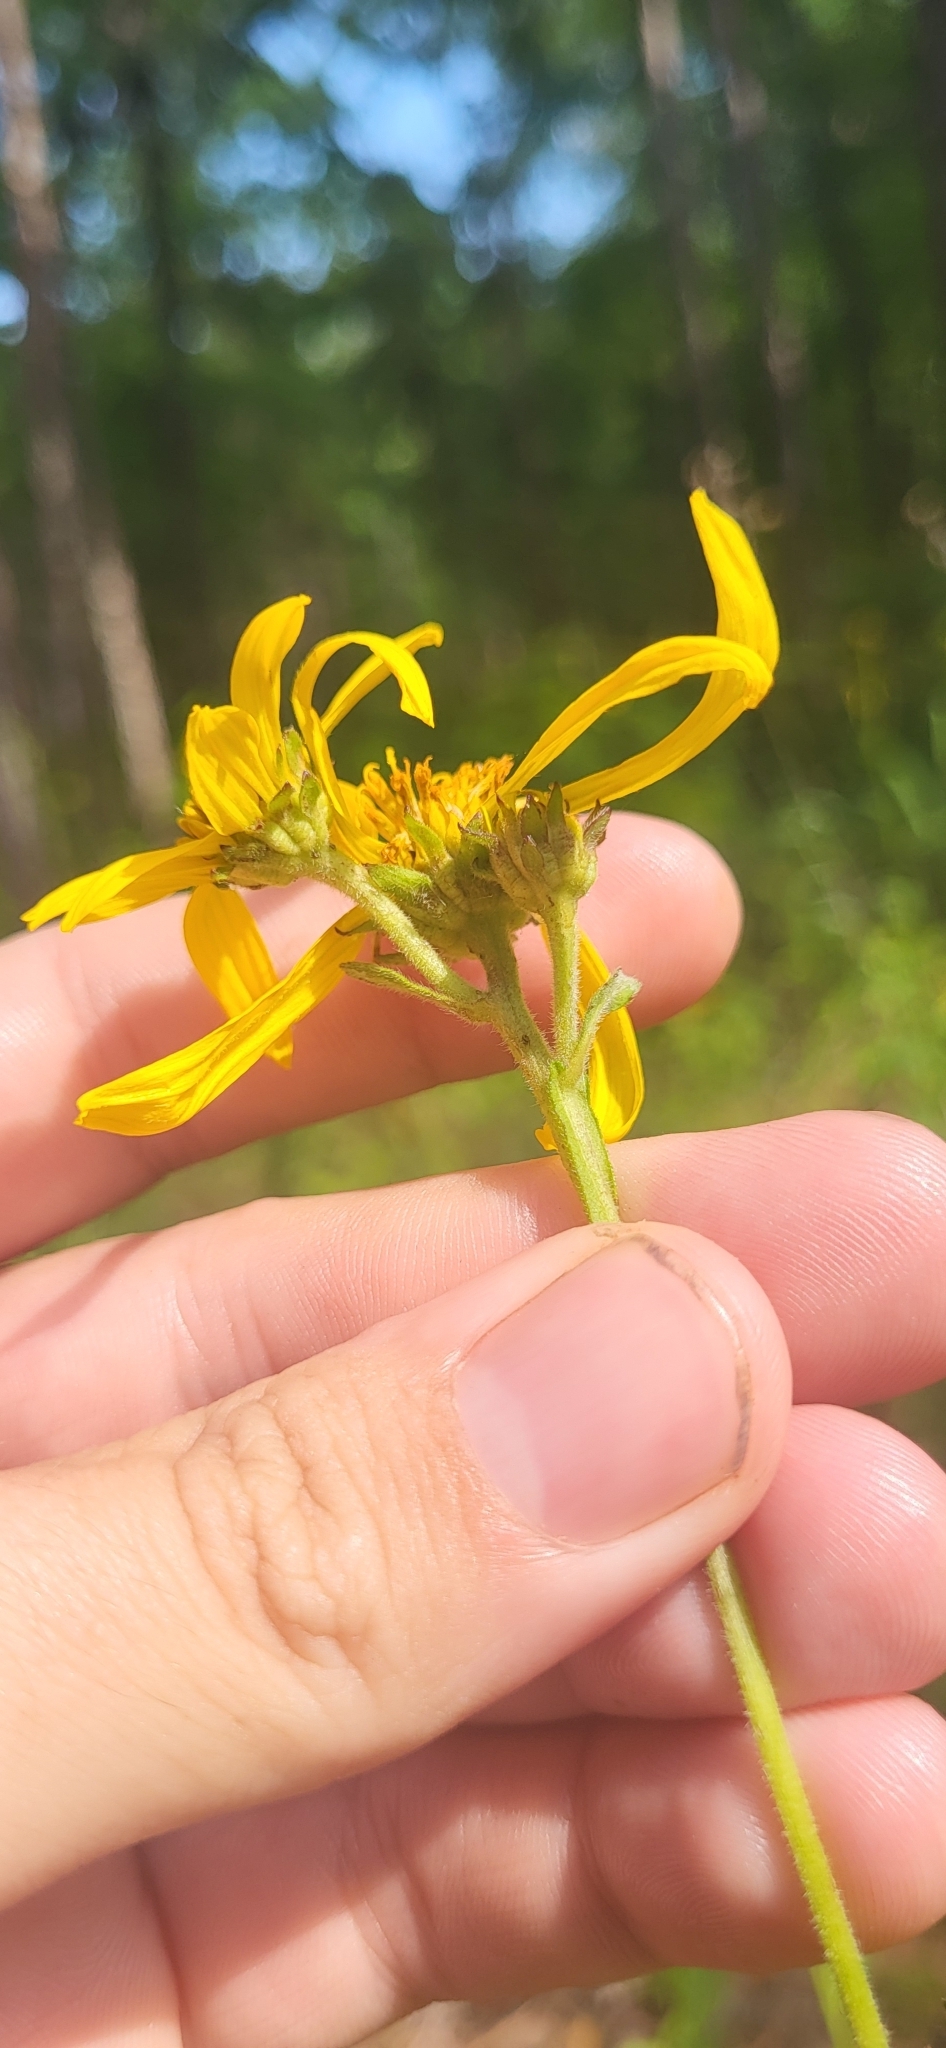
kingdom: Plantae
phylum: Tracheophyta
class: Magnoliopsida
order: Asterales
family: Asteraceae
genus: Verbesina
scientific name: Verbesina helianthoides
